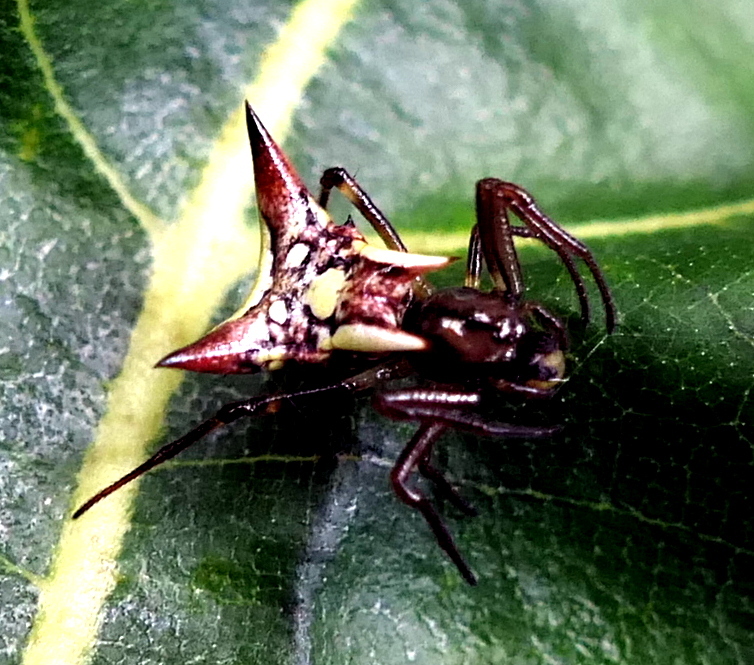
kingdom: Animalia
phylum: Arthropoda
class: Arachnida
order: Araneae
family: Araneidae
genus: Micrathena
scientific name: Micrathena evansi
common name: Orb weavers
